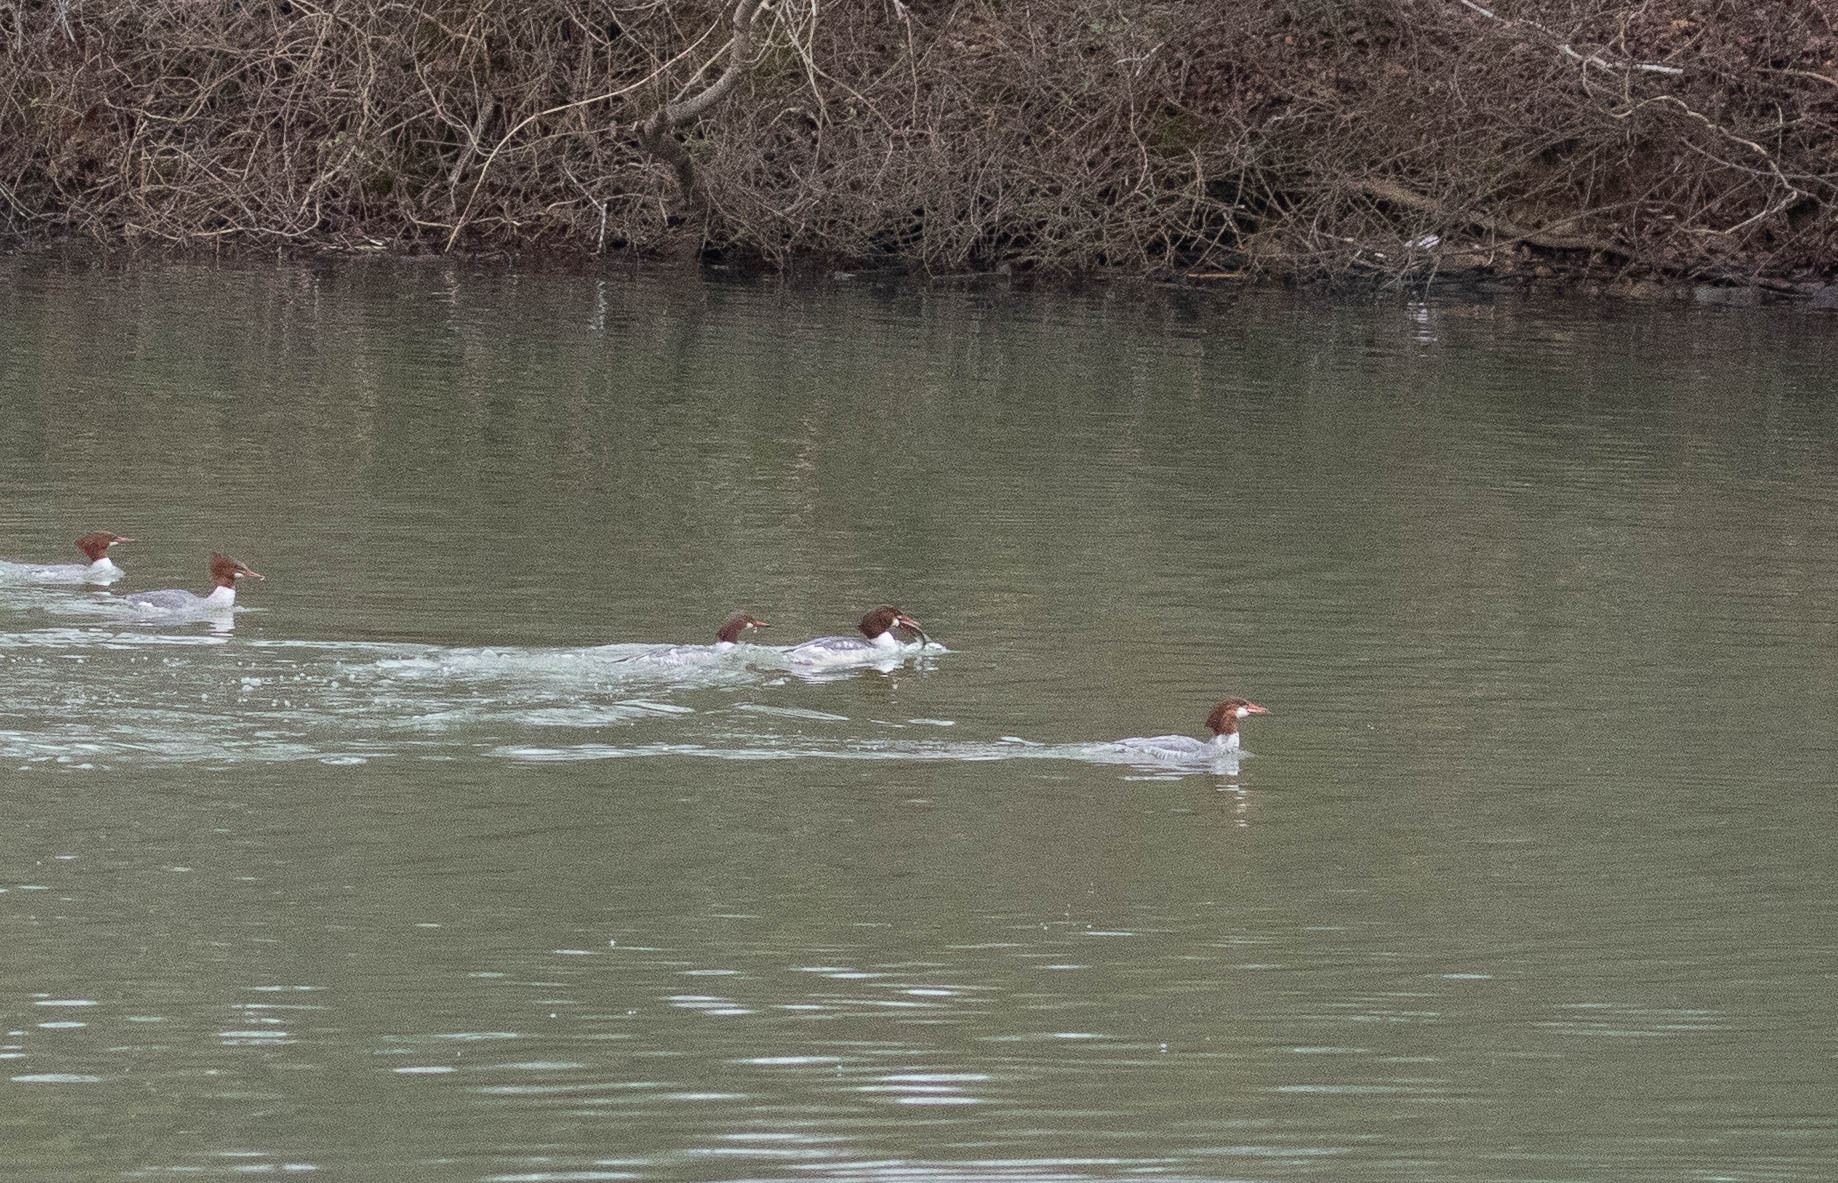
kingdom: Animalia
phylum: Chordata
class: Aves
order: Anseriformes
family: Anatidae
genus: Mergus
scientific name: Mergus merganser
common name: Common merganser
